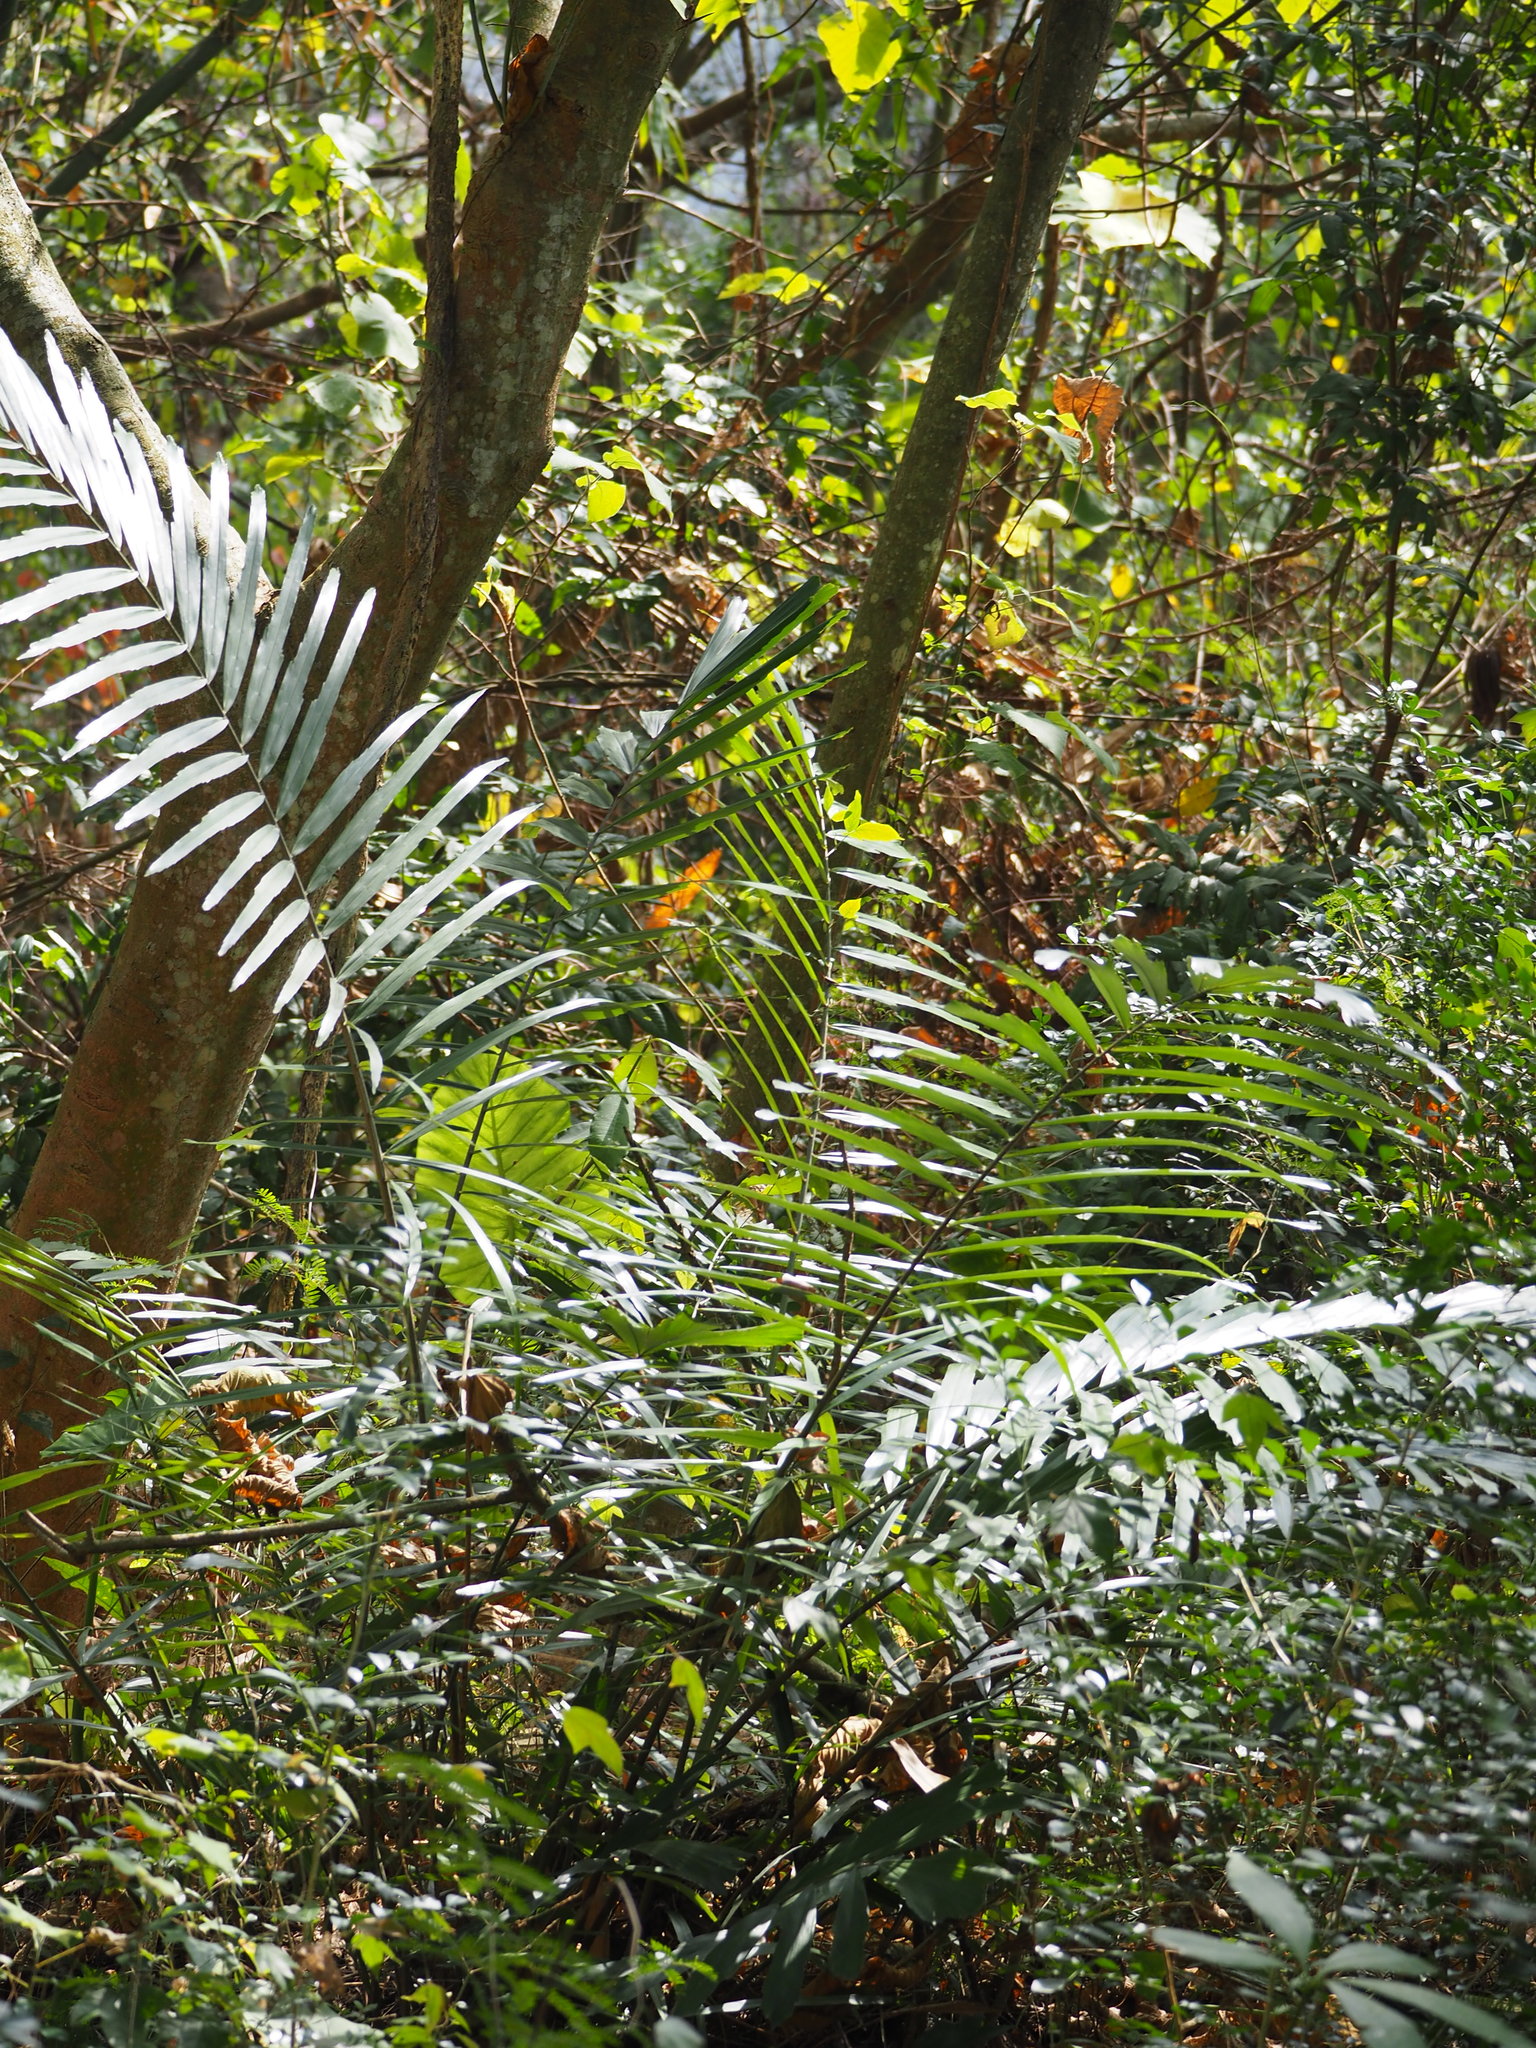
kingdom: Plantae
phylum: Tracheophyta
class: Liliopsida
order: Arecales
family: Arecaceae
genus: Arenga
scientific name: Arenga engleri
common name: Formosan sugar palm
